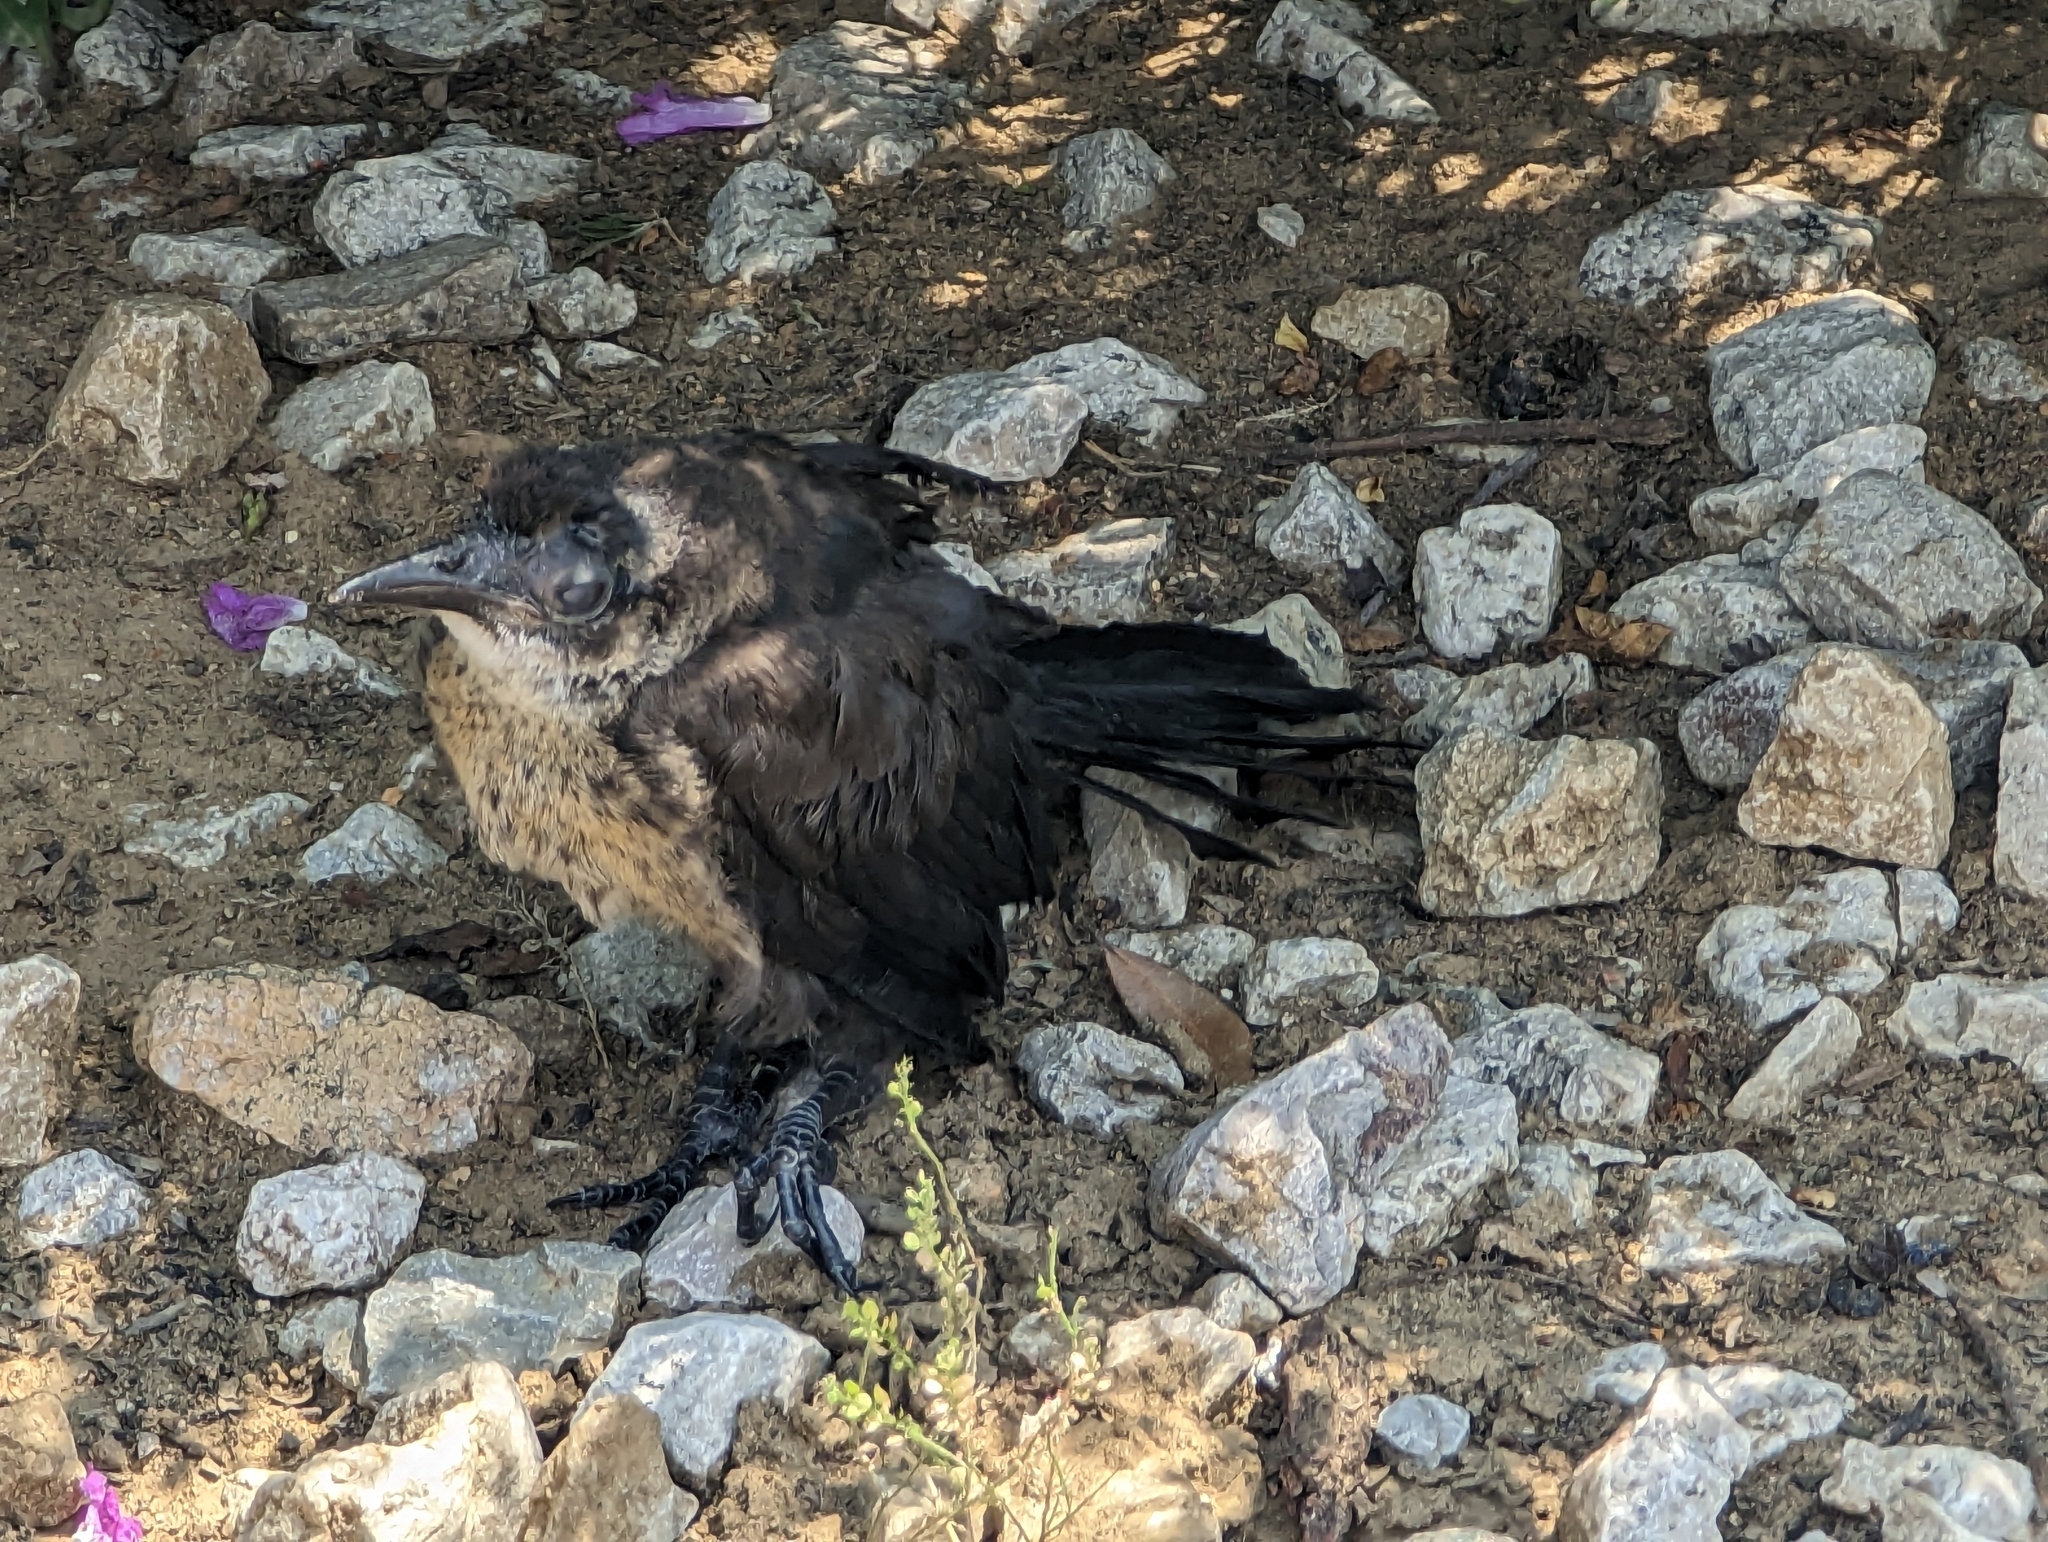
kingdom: Animalia
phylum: Chordata
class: Aves
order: Passeriformes
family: Icteridae
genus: Quiscalus
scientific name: Quiscalus mexicanus
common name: Great-tailed grackle
